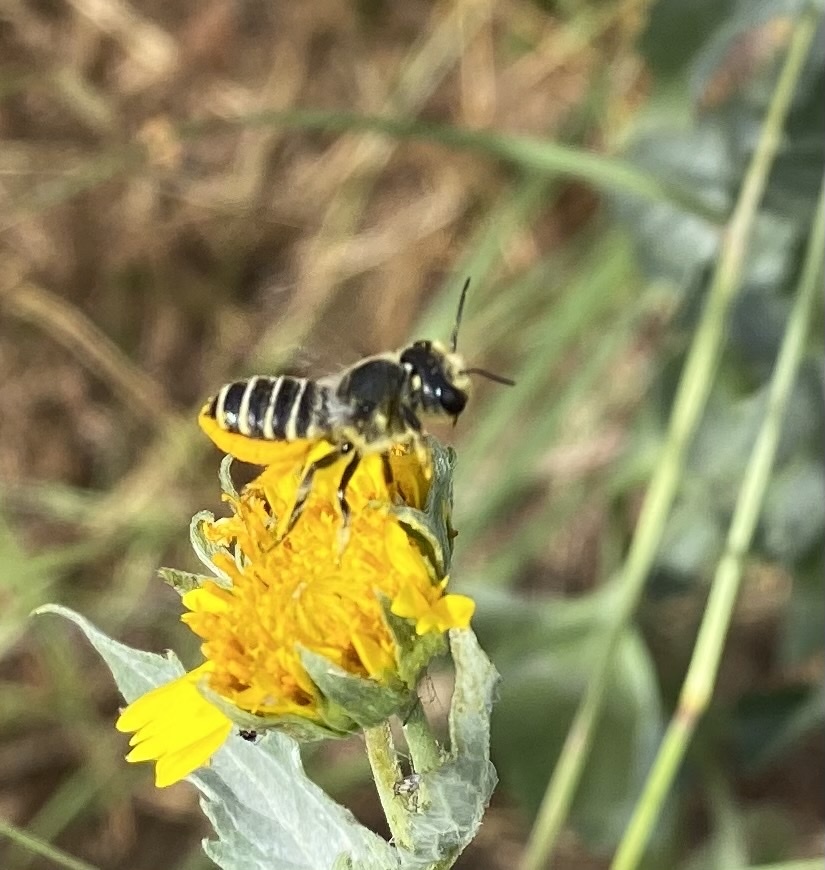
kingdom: Animalia
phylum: Arthropoda
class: Insecta
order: Hymenoptera
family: Megachilidae
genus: Megachile
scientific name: Megachile policaris
